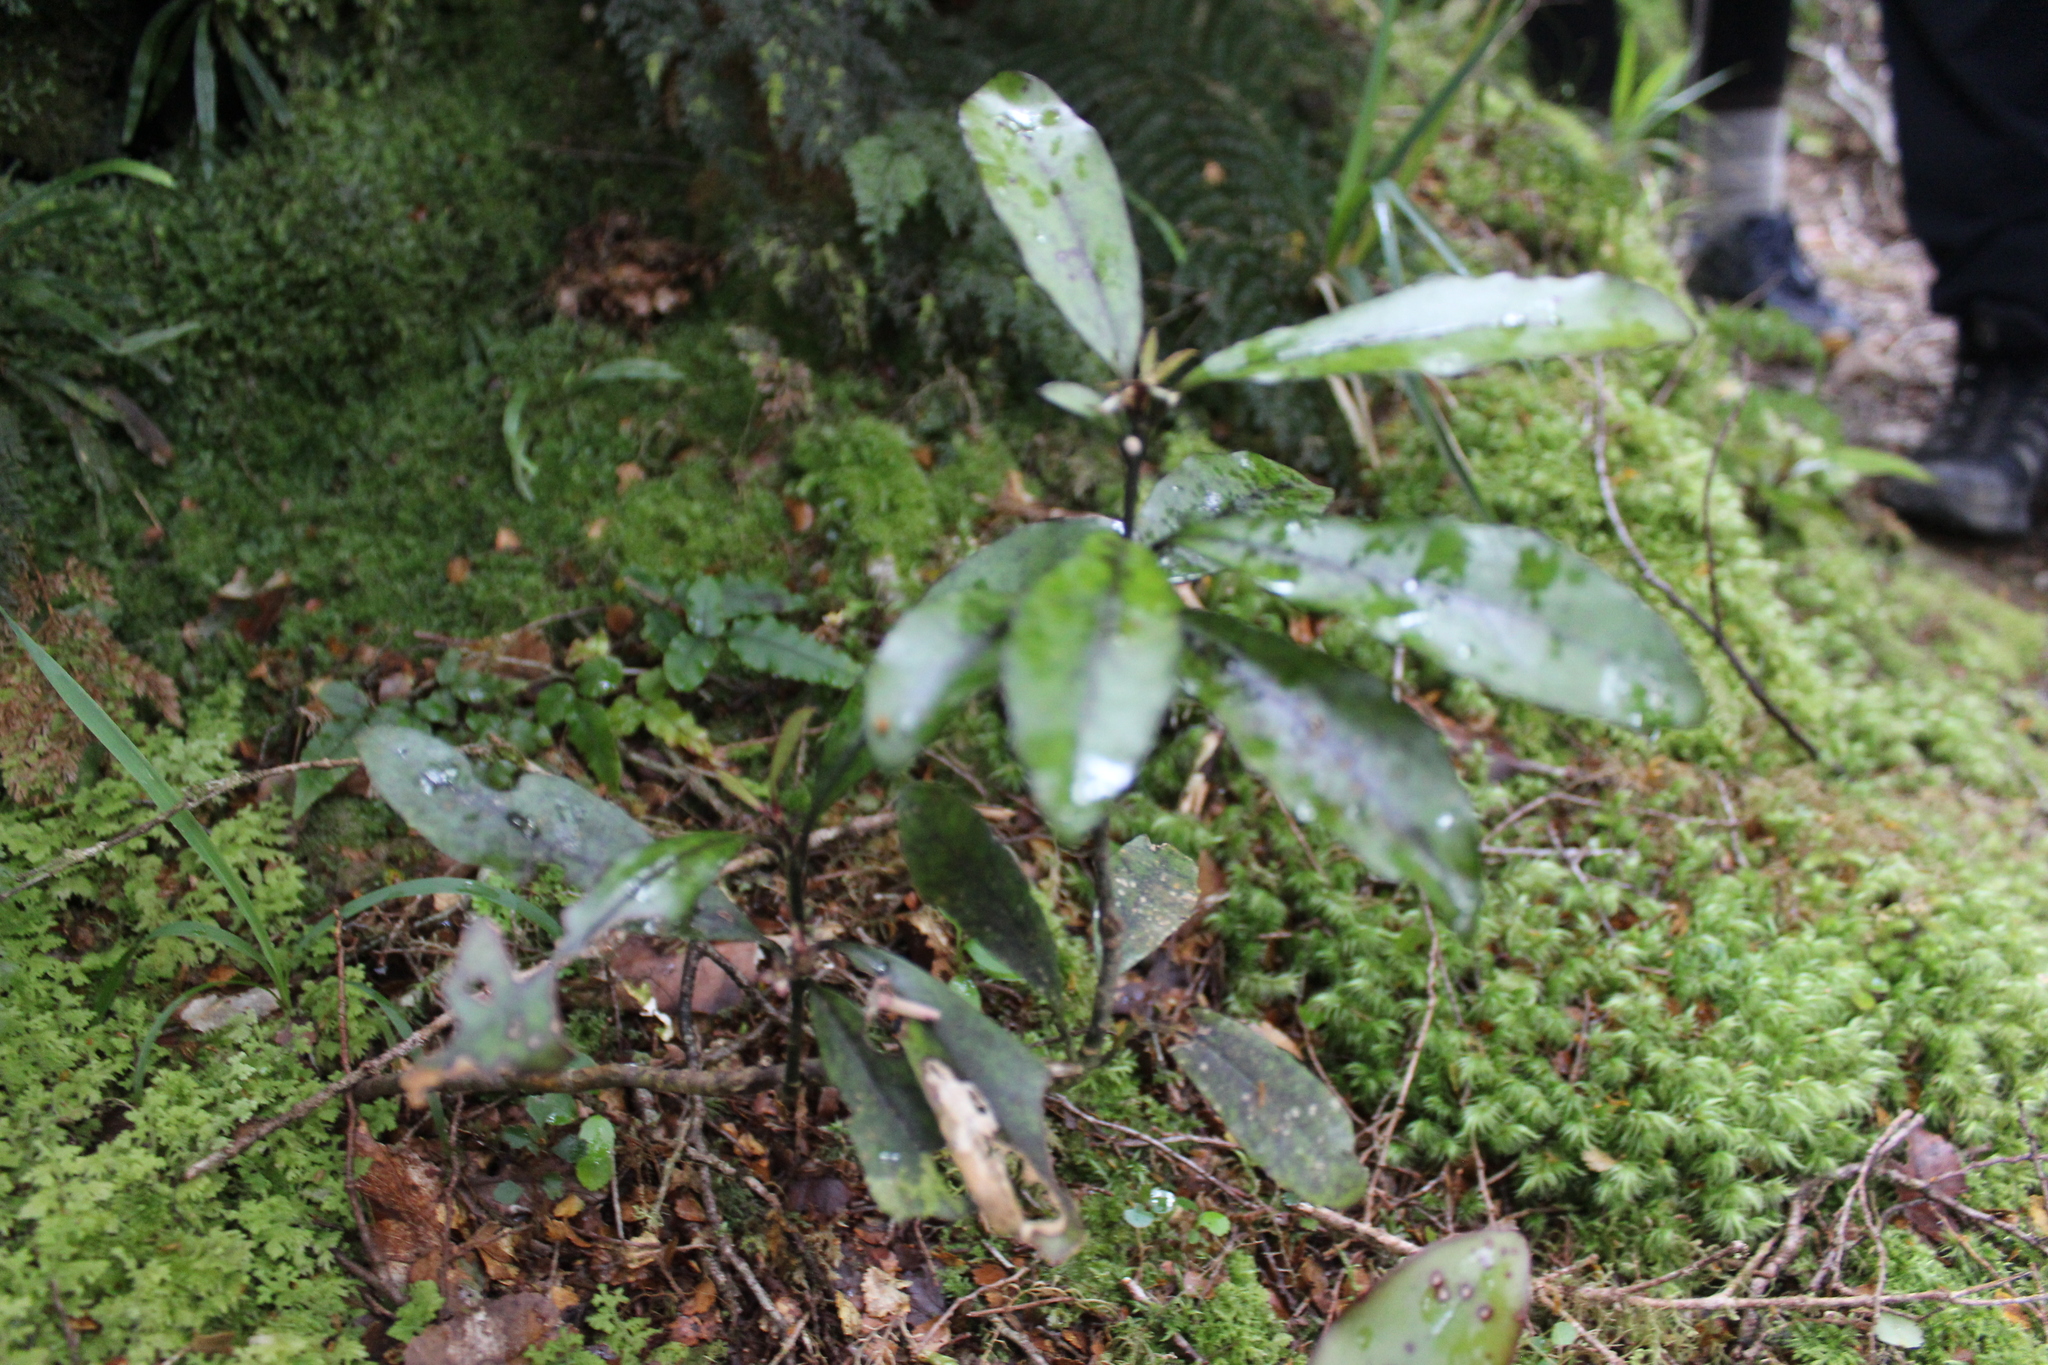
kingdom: Plantae
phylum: Tracheophyta
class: Magnoliopsida
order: Asterales
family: Alseuosmiaceae
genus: Alseuosmia
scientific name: Alseuosmia pusilla
